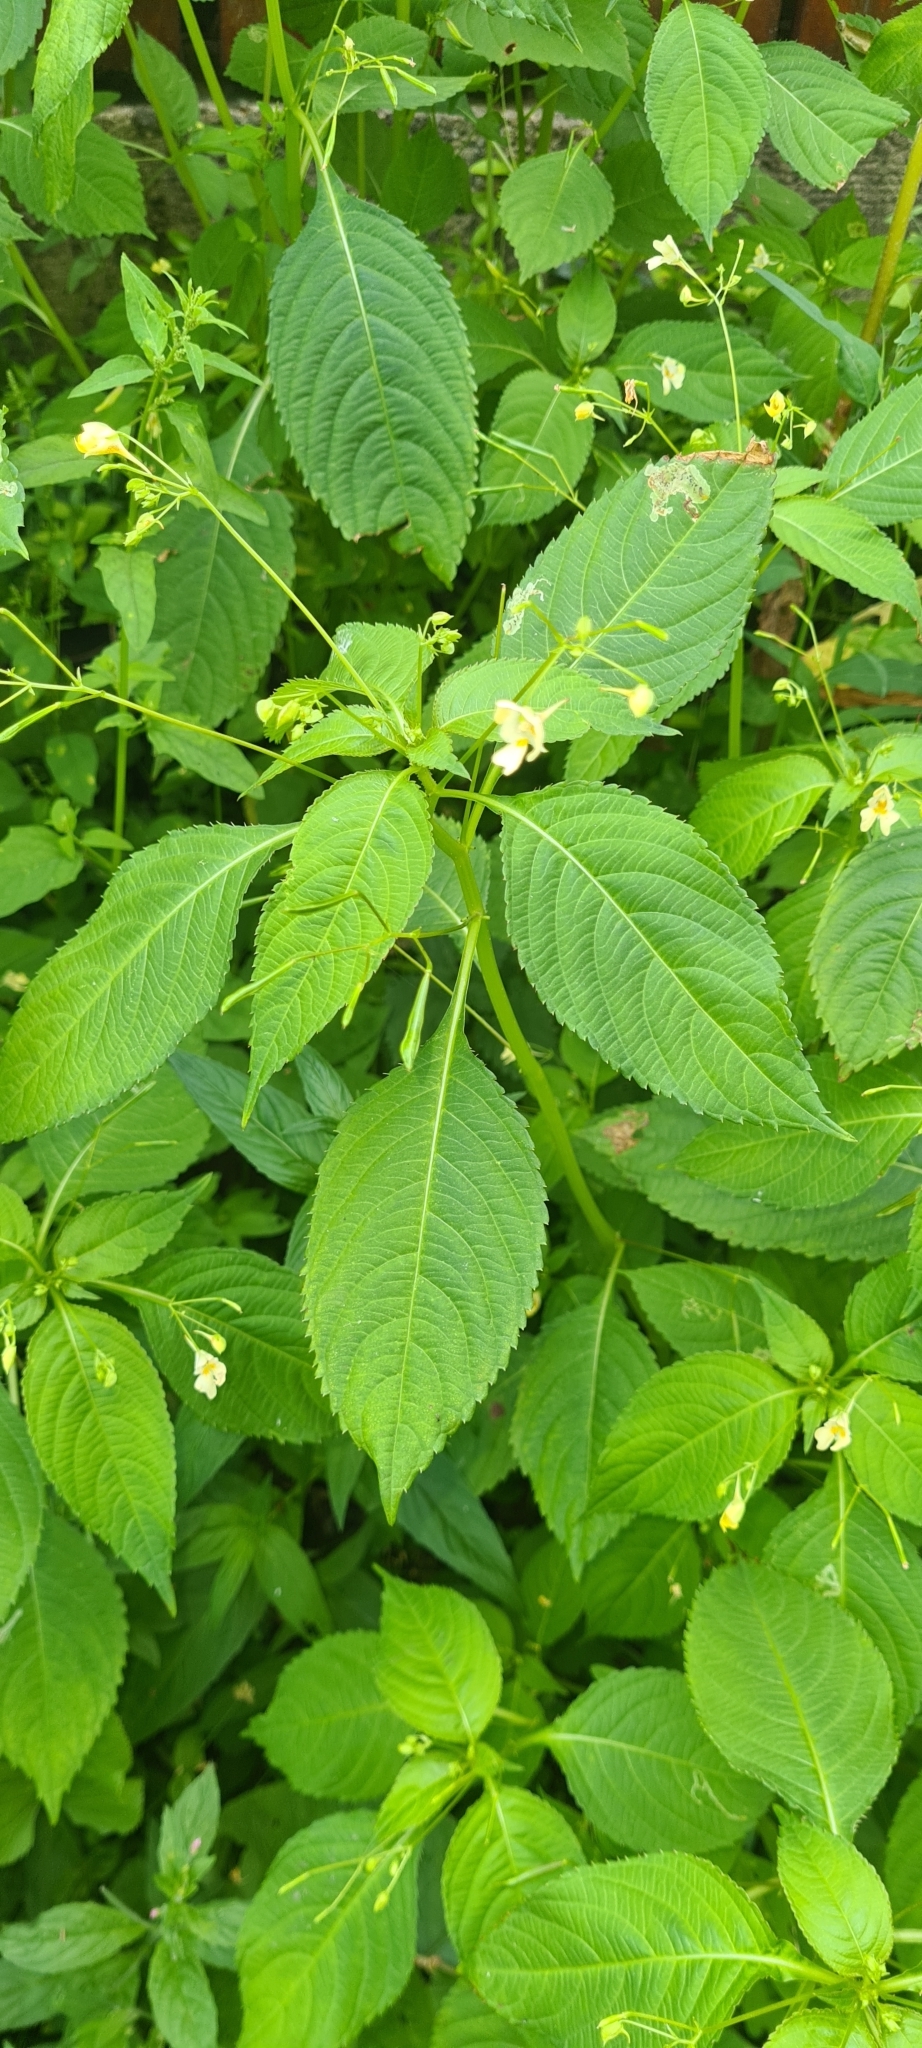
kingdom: Plantae
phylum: Tracheophyta
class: Magnoliopsida
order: Ericales
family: Balsaminaceae
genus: Impatiens
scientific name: Impatiens parviflora
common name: Small balsam
